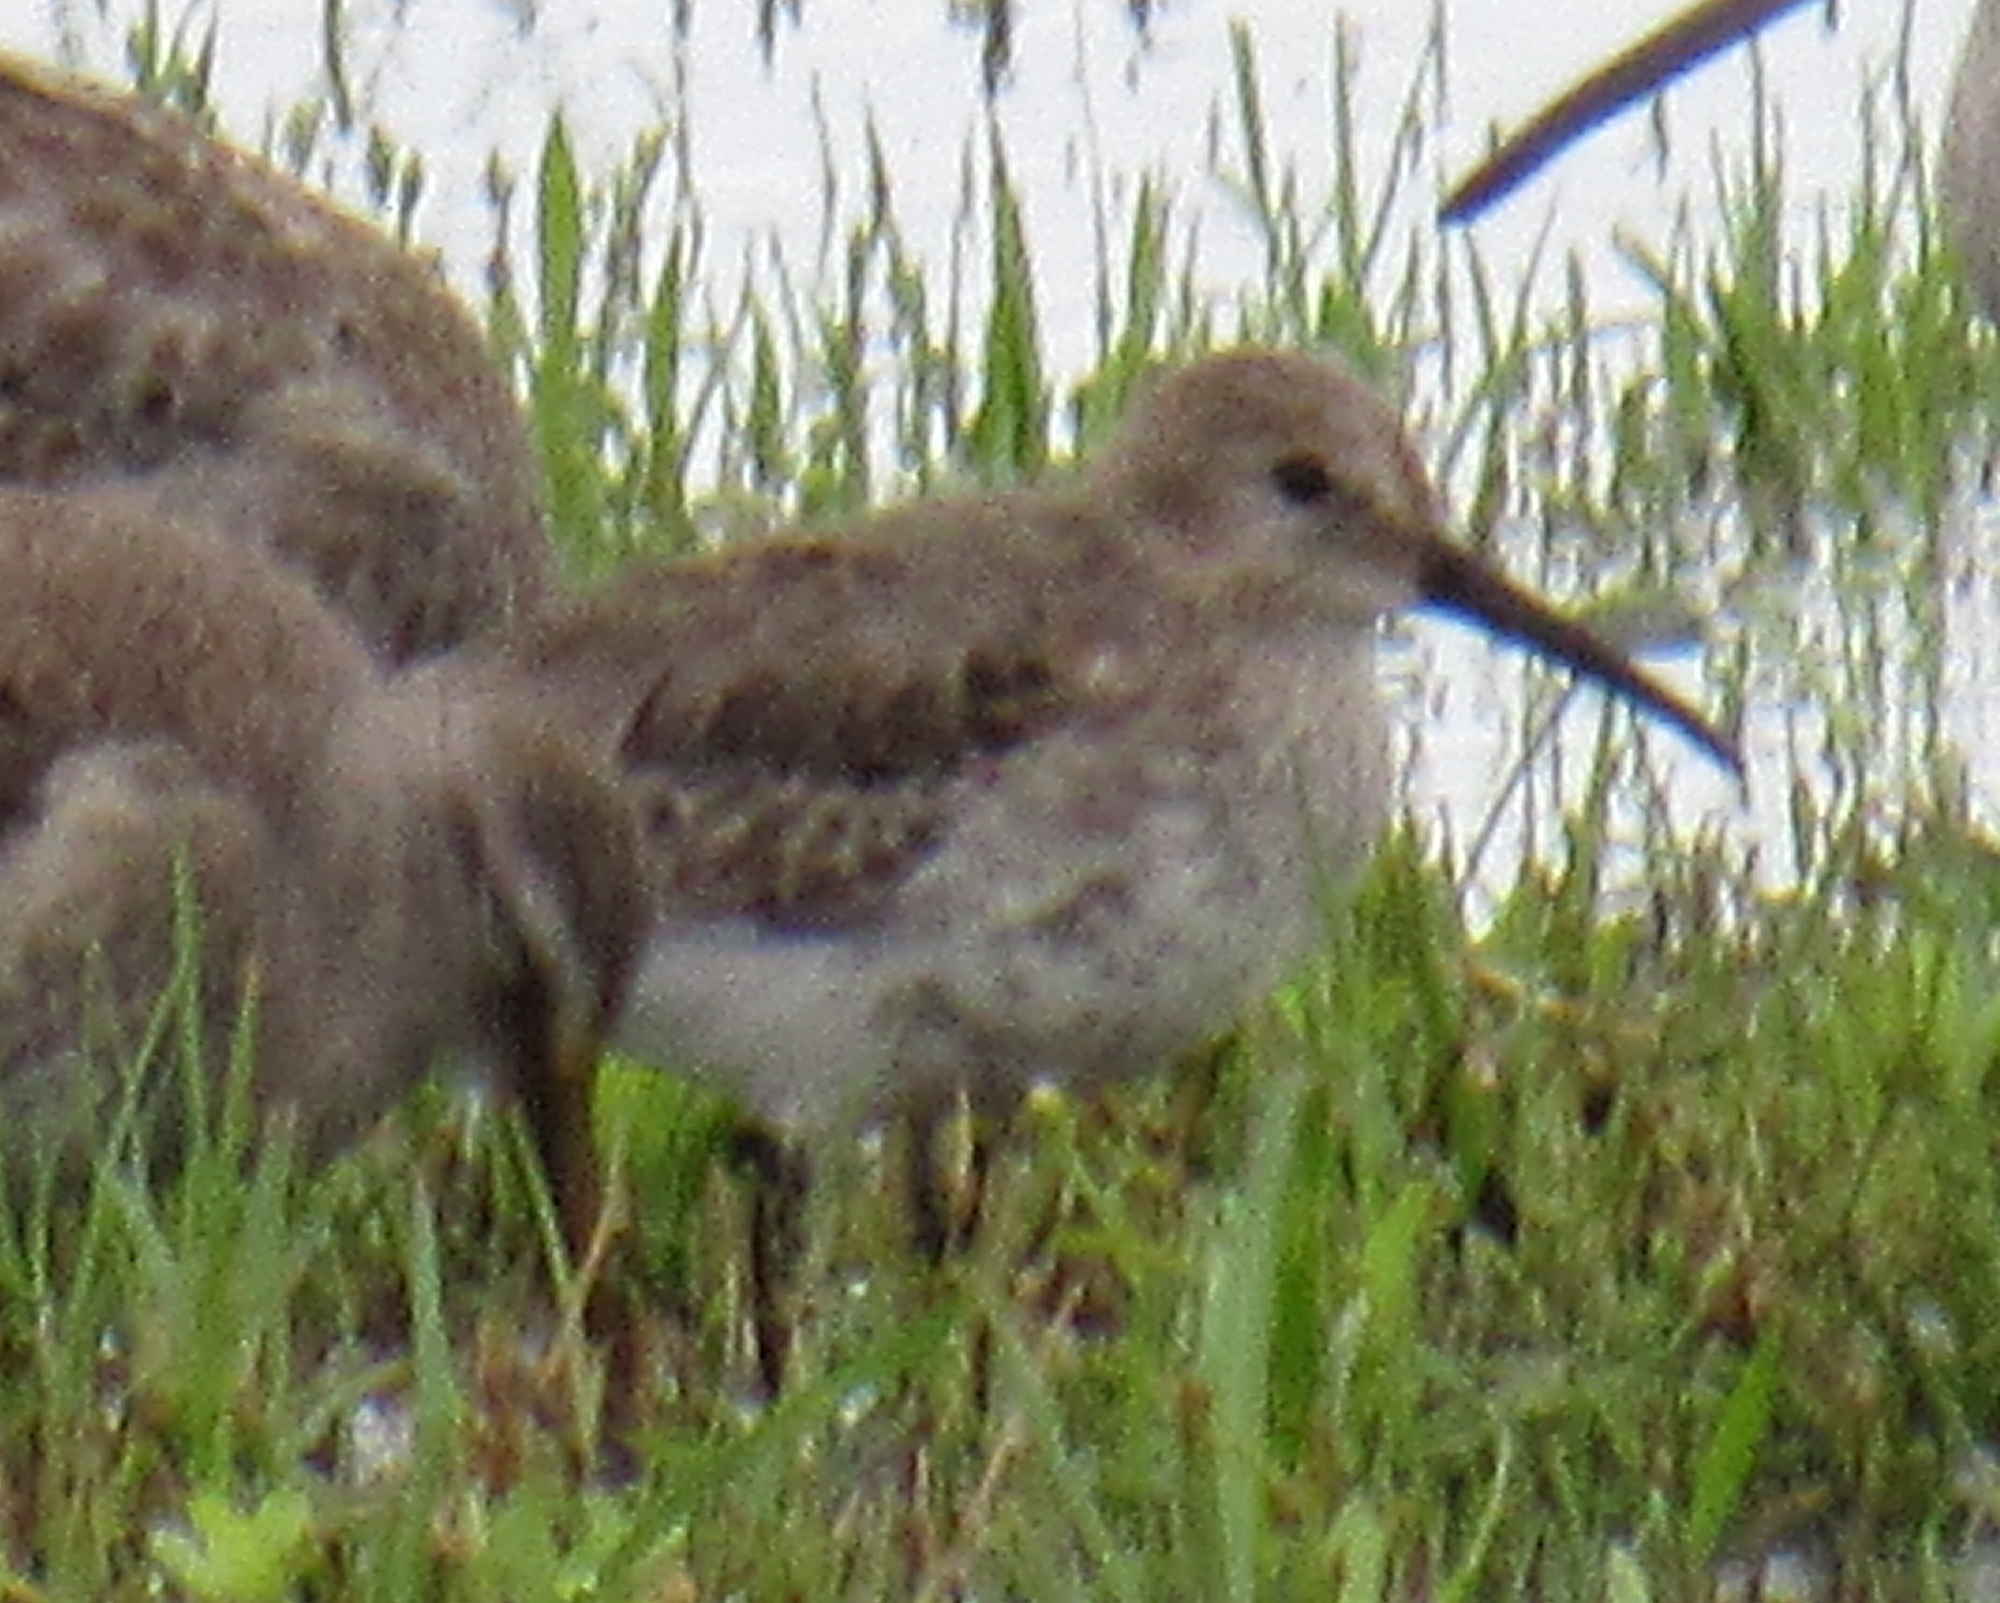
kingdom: Animalia
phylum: Chordata
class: Aves
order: Charadriiformes
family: Scolopacidae
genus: Calidris
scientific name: Calidris alpina
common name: Dunlin
